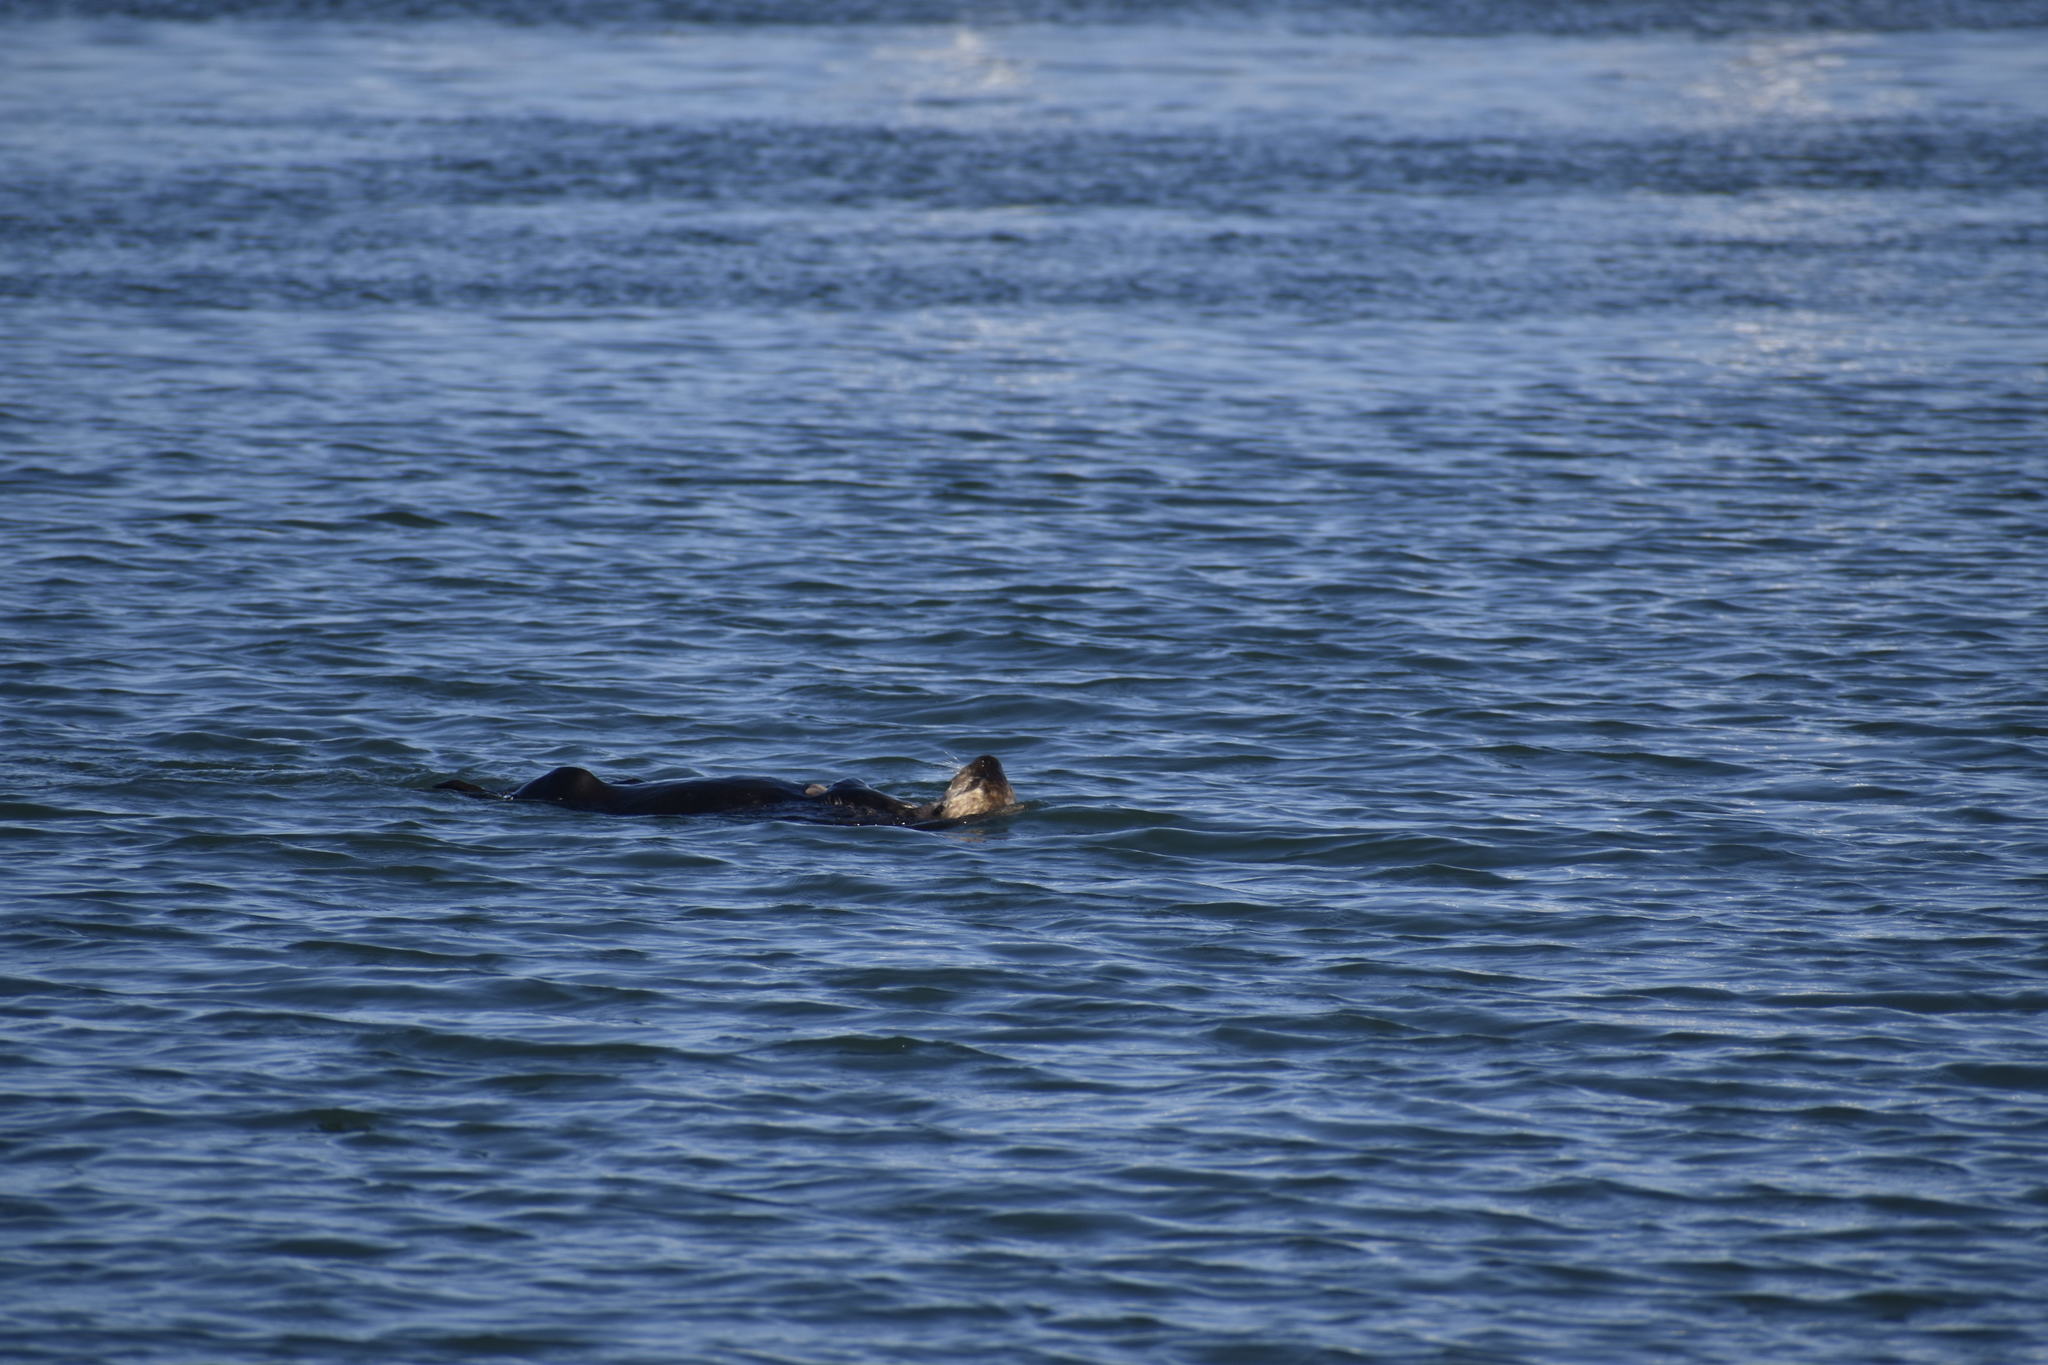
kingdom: Animalia
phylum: Chordata
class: Mammalia
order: Carnivora
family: Mustelidae
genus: Enhydra
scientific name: Enhydra lutris
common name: Sea otter
